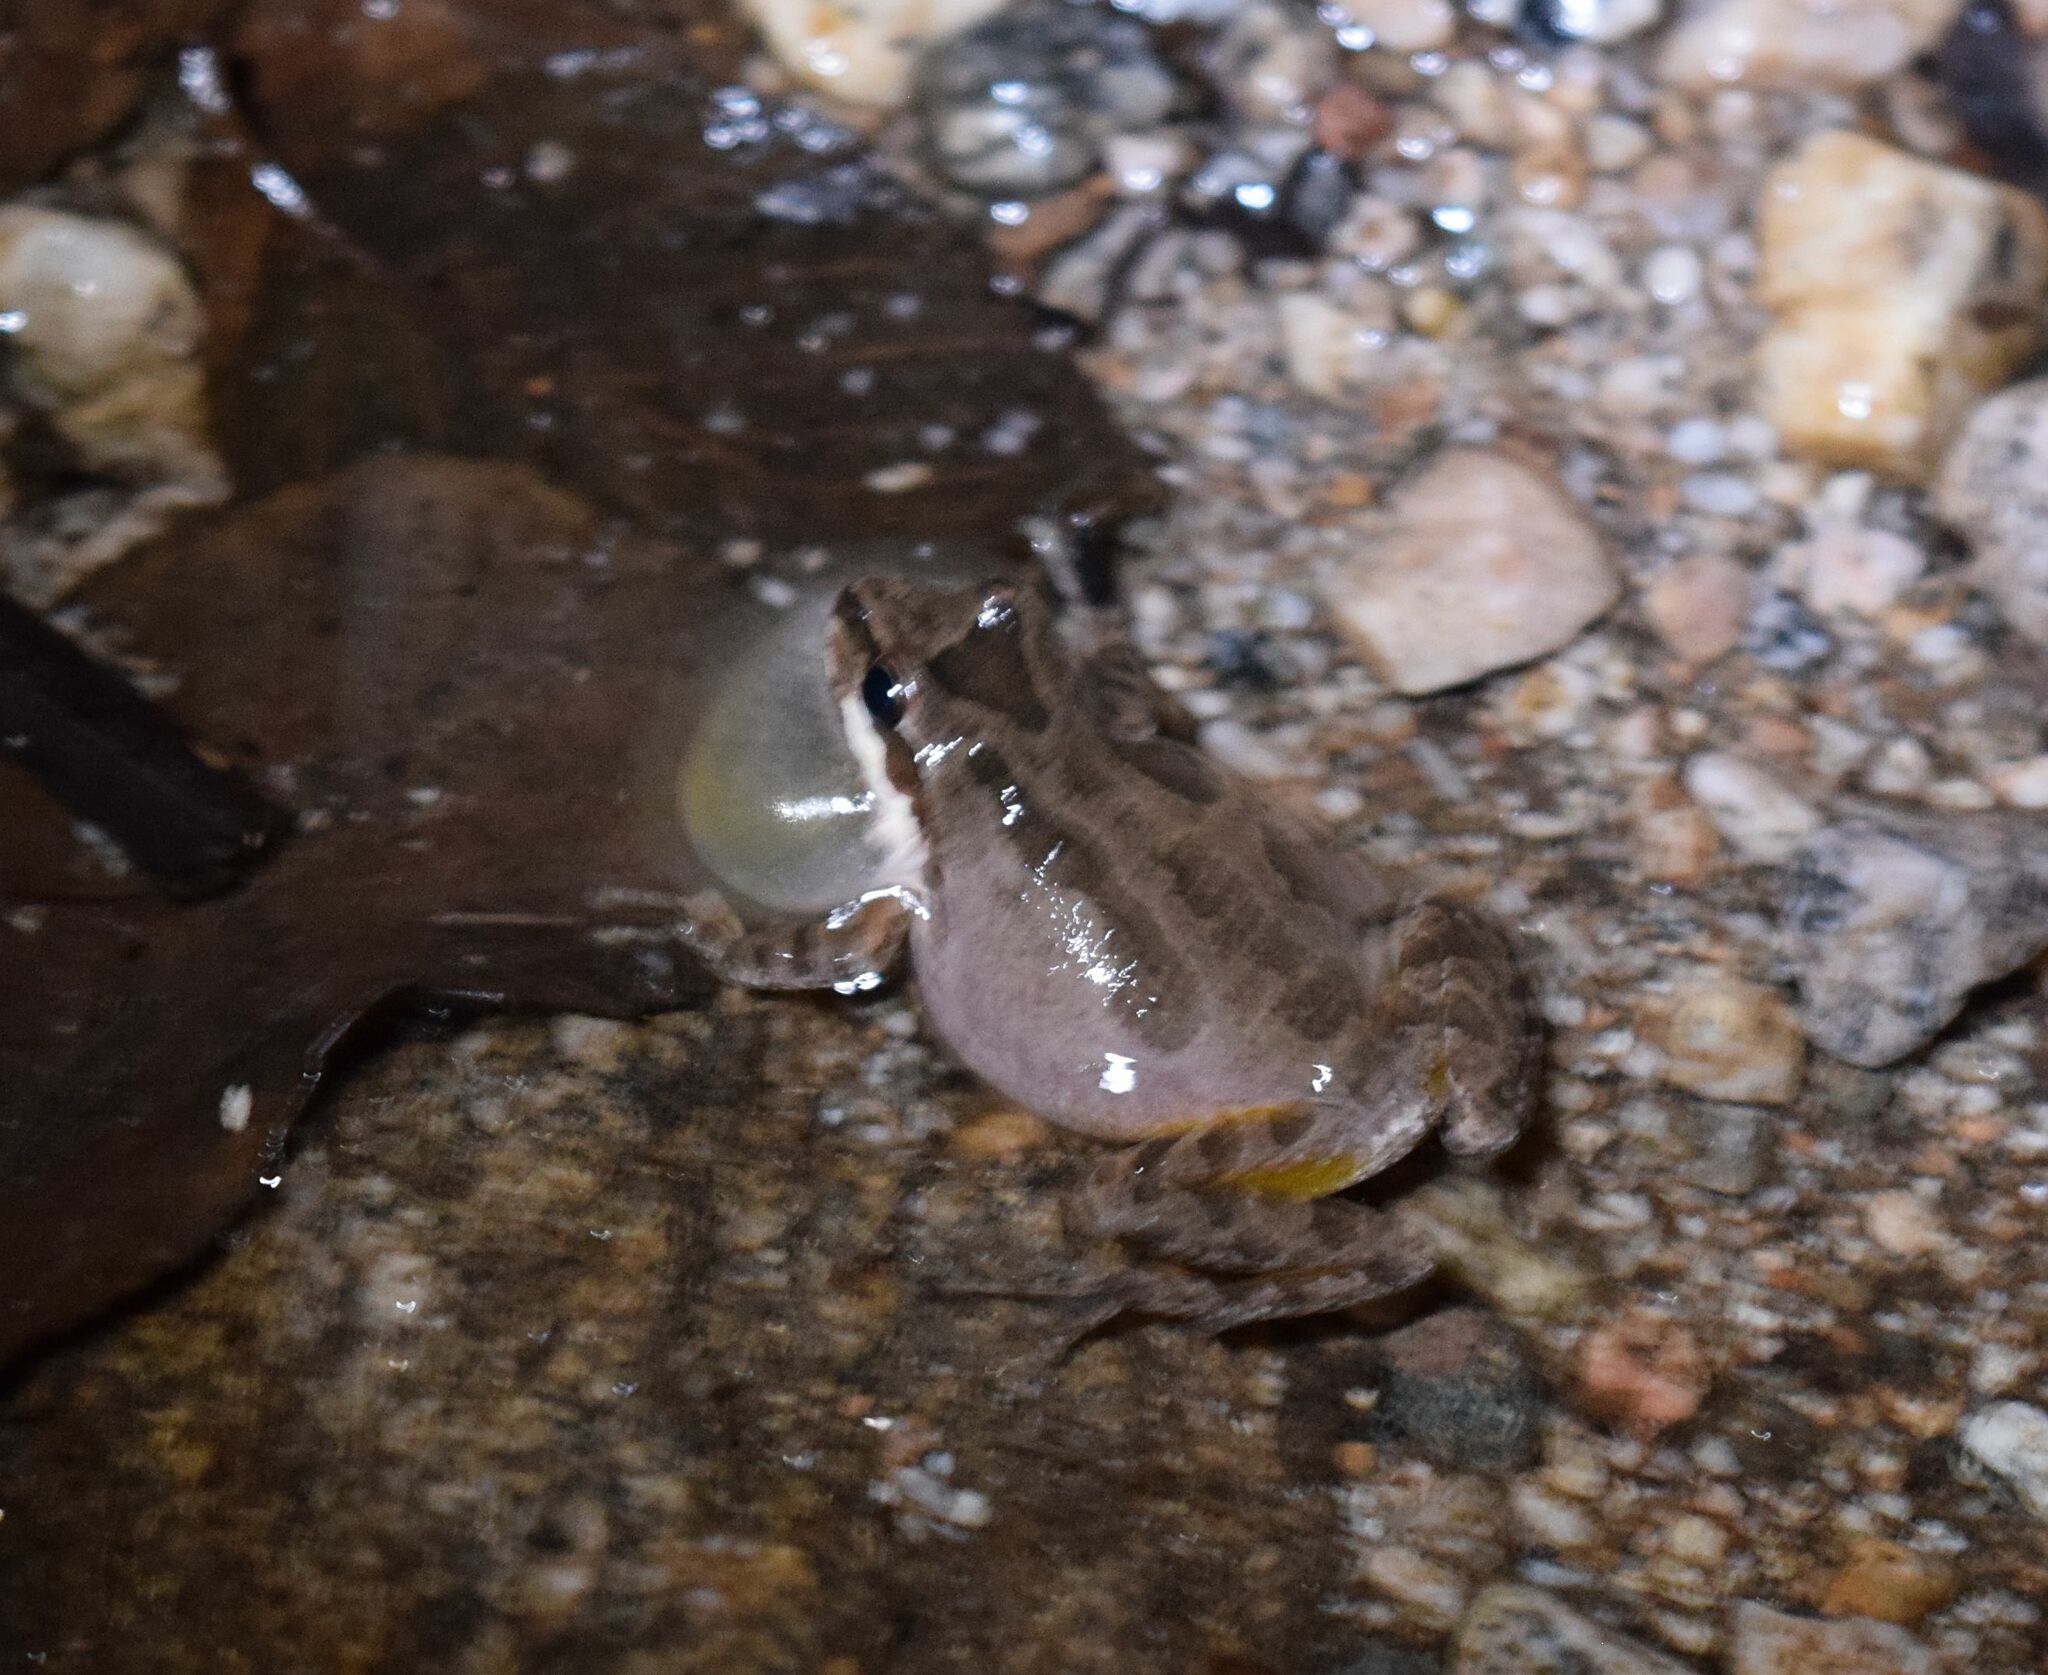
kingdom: Animalia
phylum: Chordata
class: Amphibia
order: Anura
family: Hylidae
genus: Pseudacris
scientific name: Pseudacris regilla
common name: Pacific chorus frog
